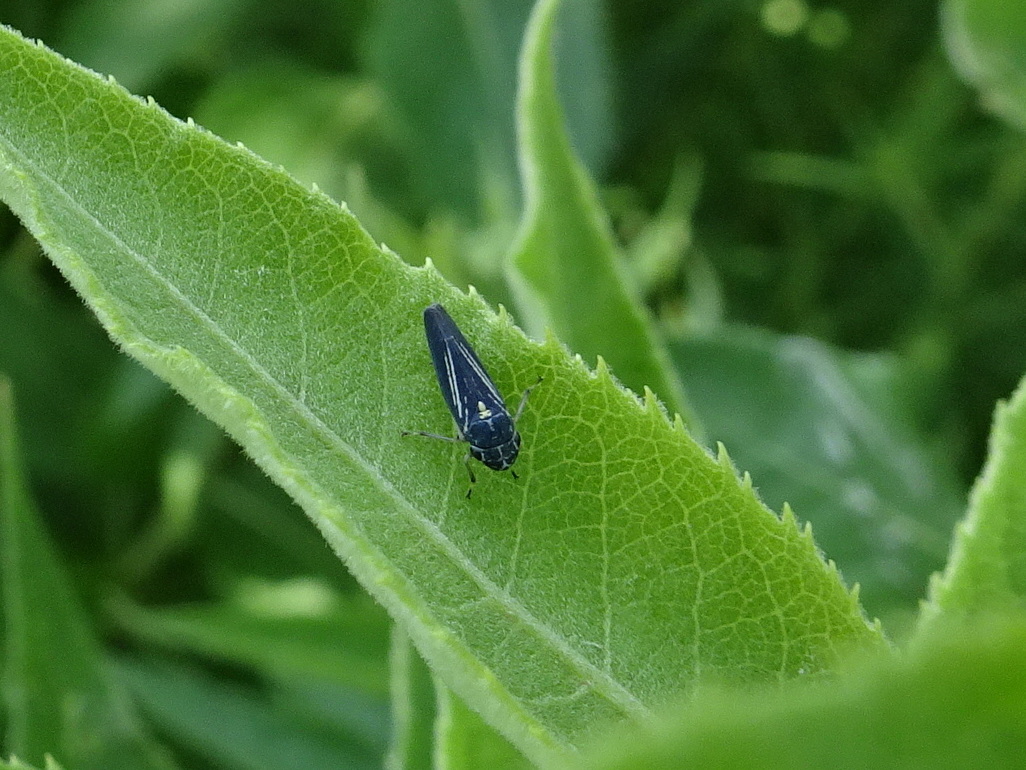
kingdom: Animalia
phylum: Arthropoda
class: Insecta
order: Hemiptera
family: Cicadellidae
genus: Neokolla
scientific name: Neokolla hieroglyphica
